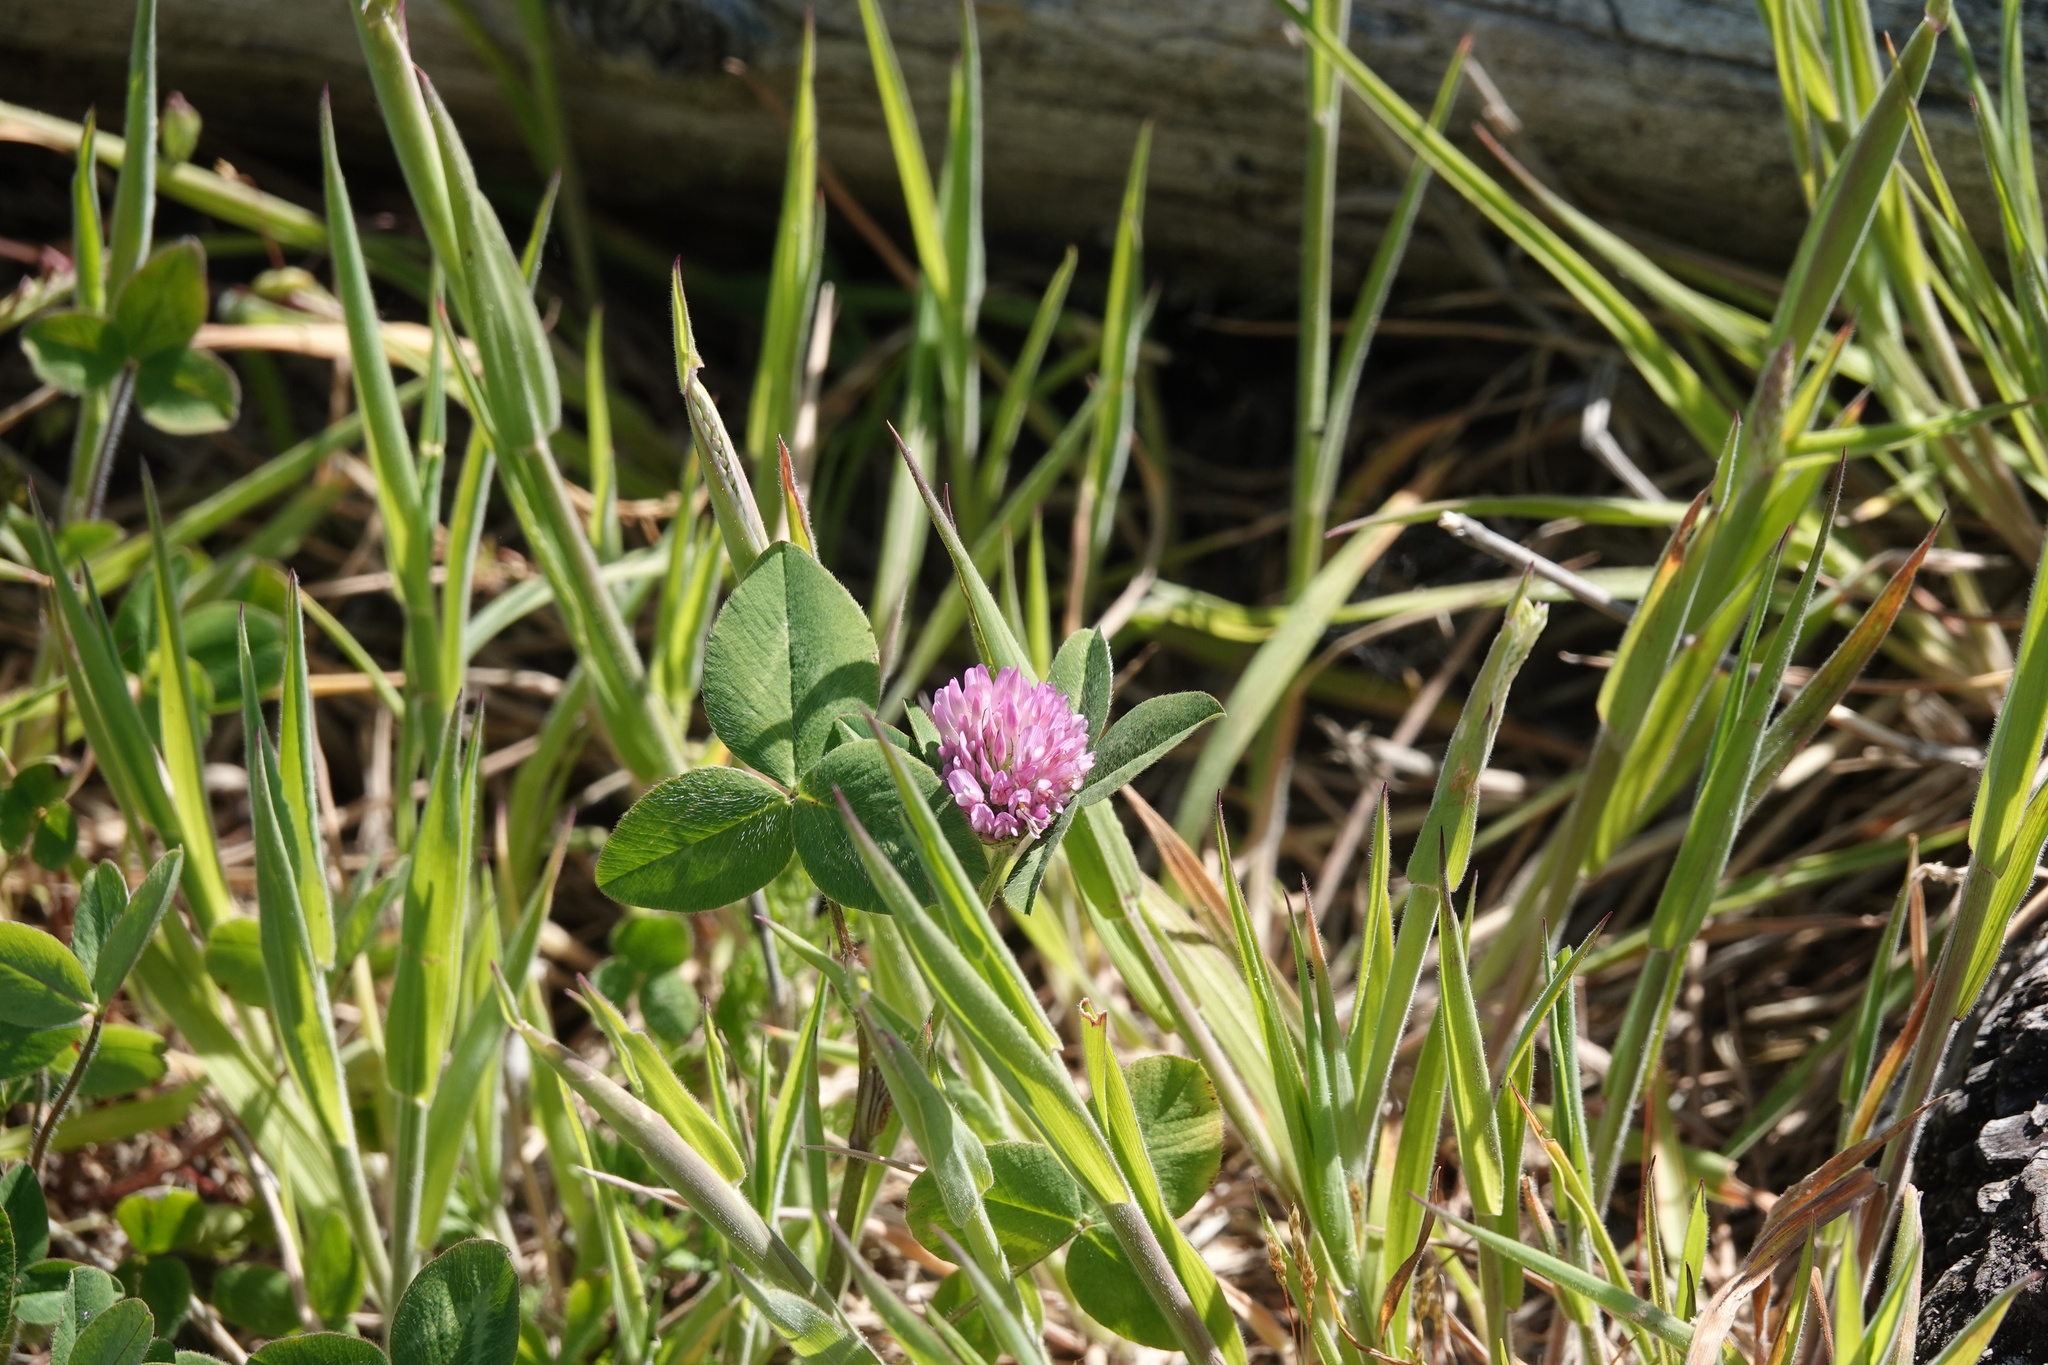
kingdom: Plantae
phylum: Tracheophyta
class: Magnoliopsida
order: Fabales
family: Fabaceae
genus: Trifolium
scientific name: Trifolium pratense
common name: Red clover
